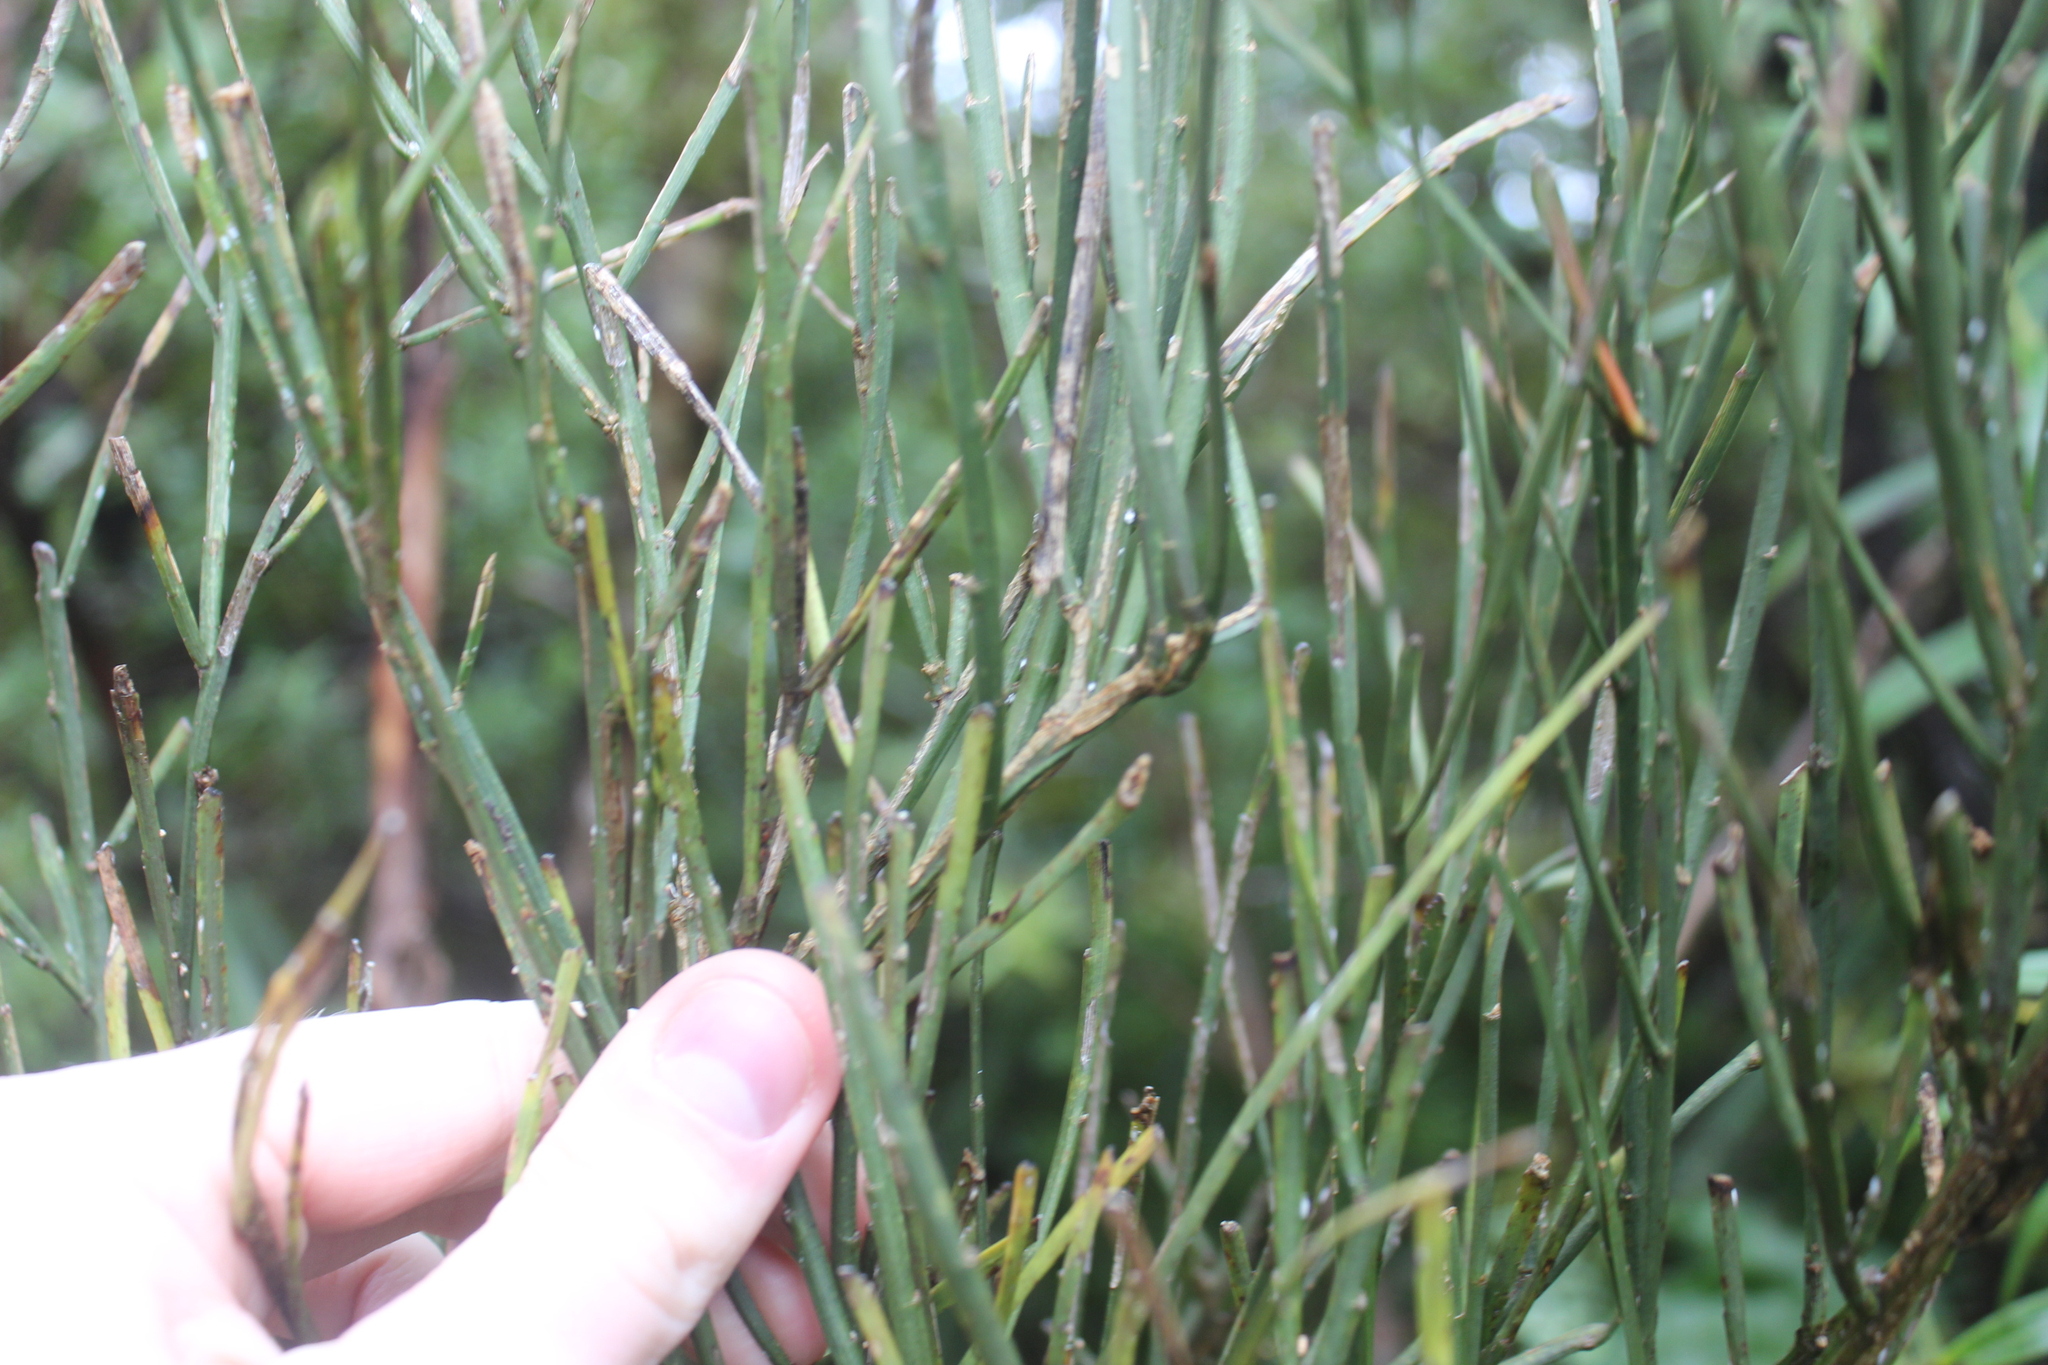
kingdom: Plantae
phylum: Tracheophyta
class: Magnoliopsida
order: Fabales
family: Fabaceae
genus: Carmichaelia
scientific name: Carmichaelia australis
